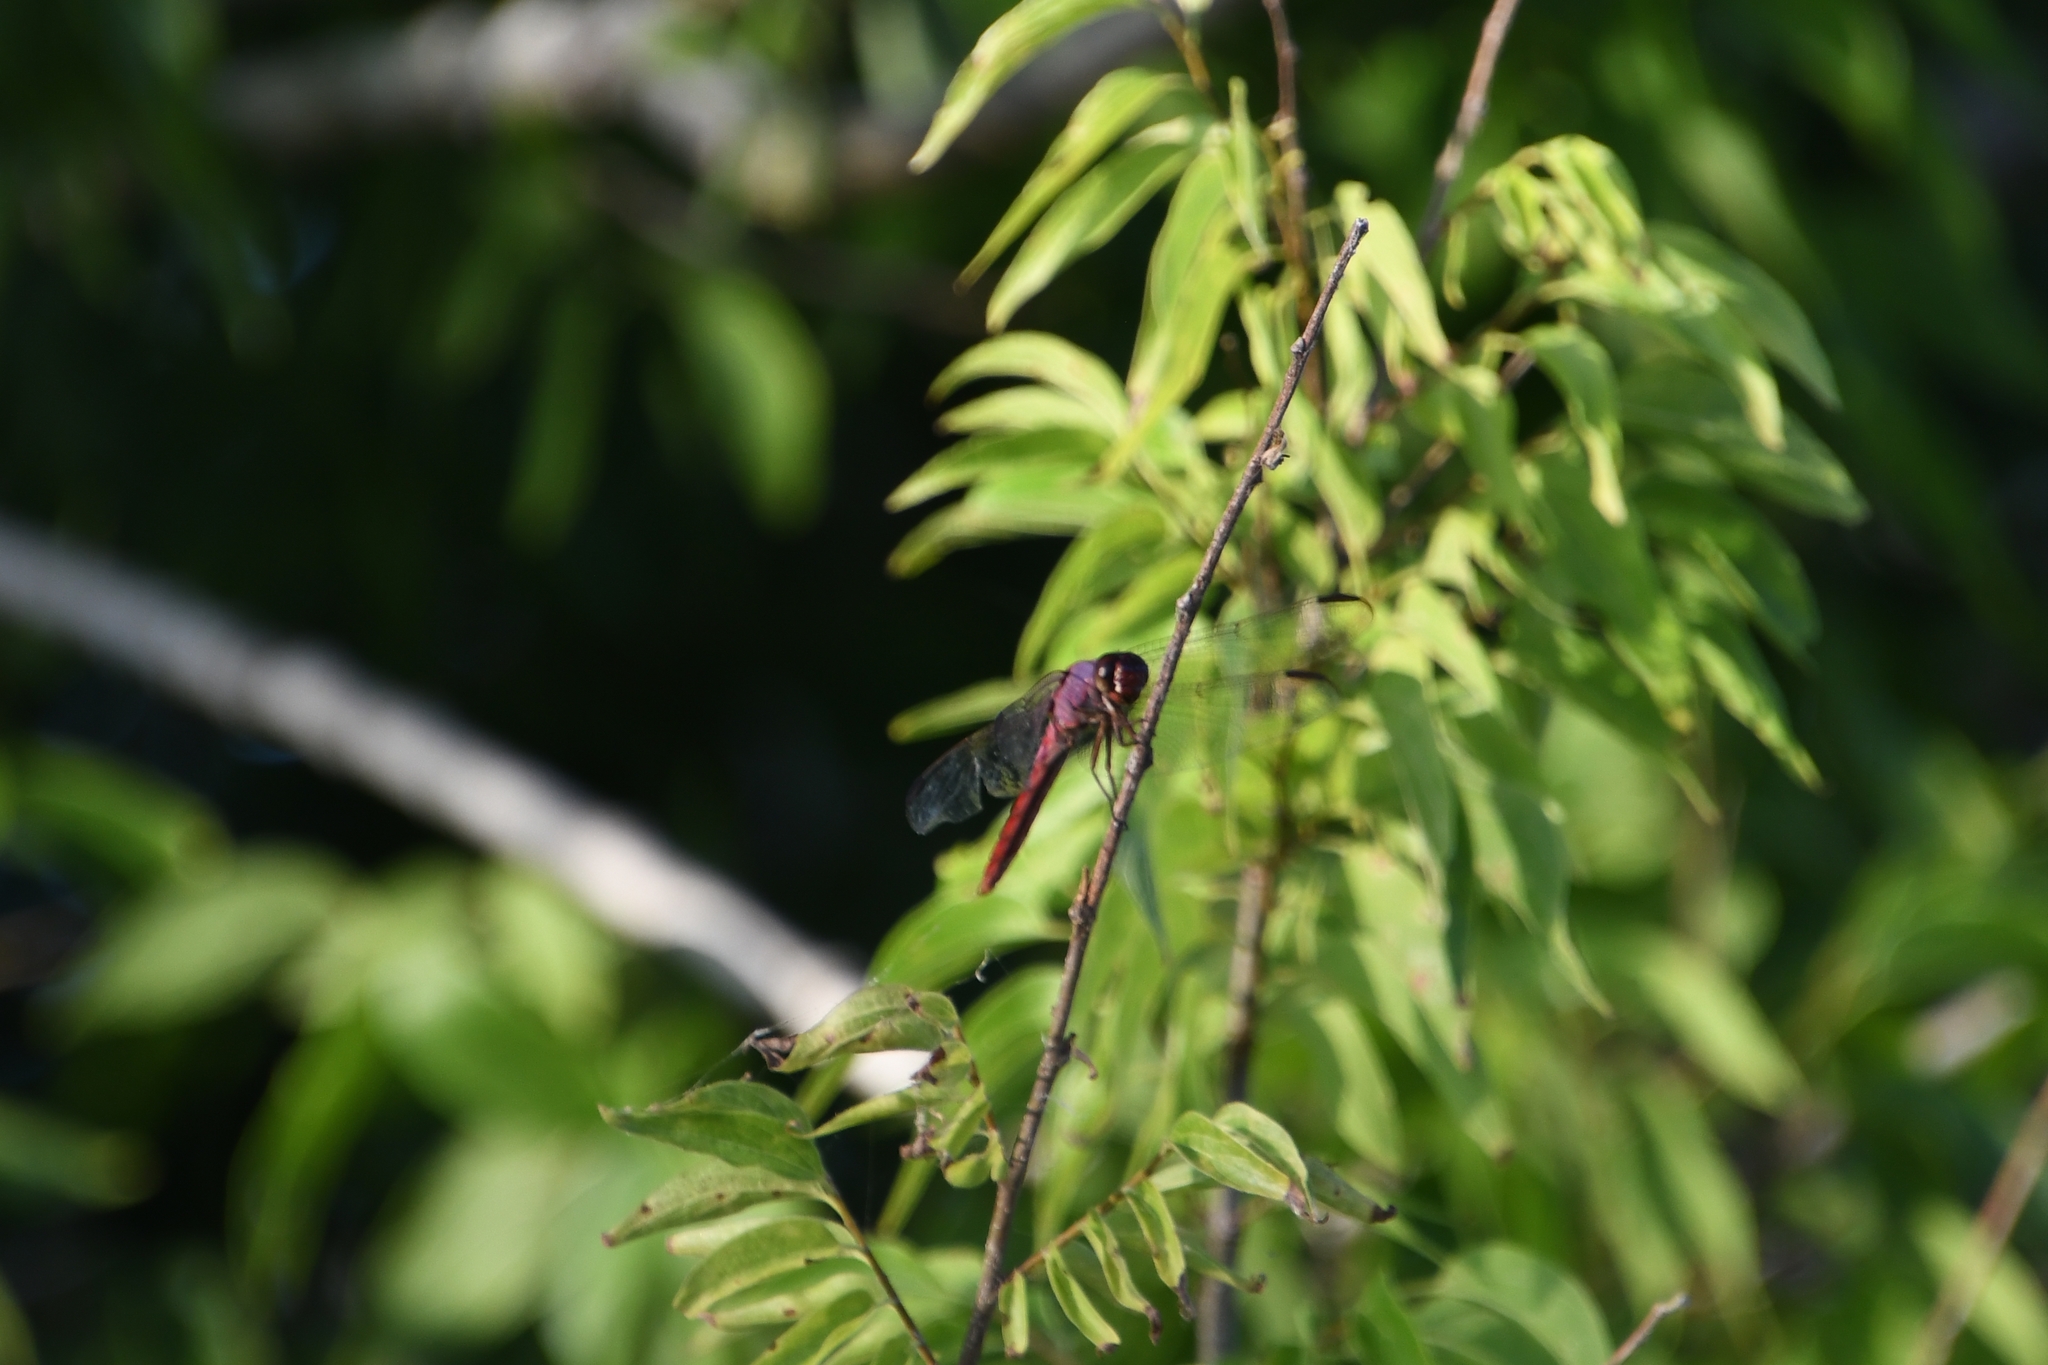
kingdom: Animalia
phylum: Arthropoda
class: Insecta
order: Odonata
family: Libellulidae
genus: Orthemis
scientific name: Orthemis ferruginea
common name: Roseate skimmer
